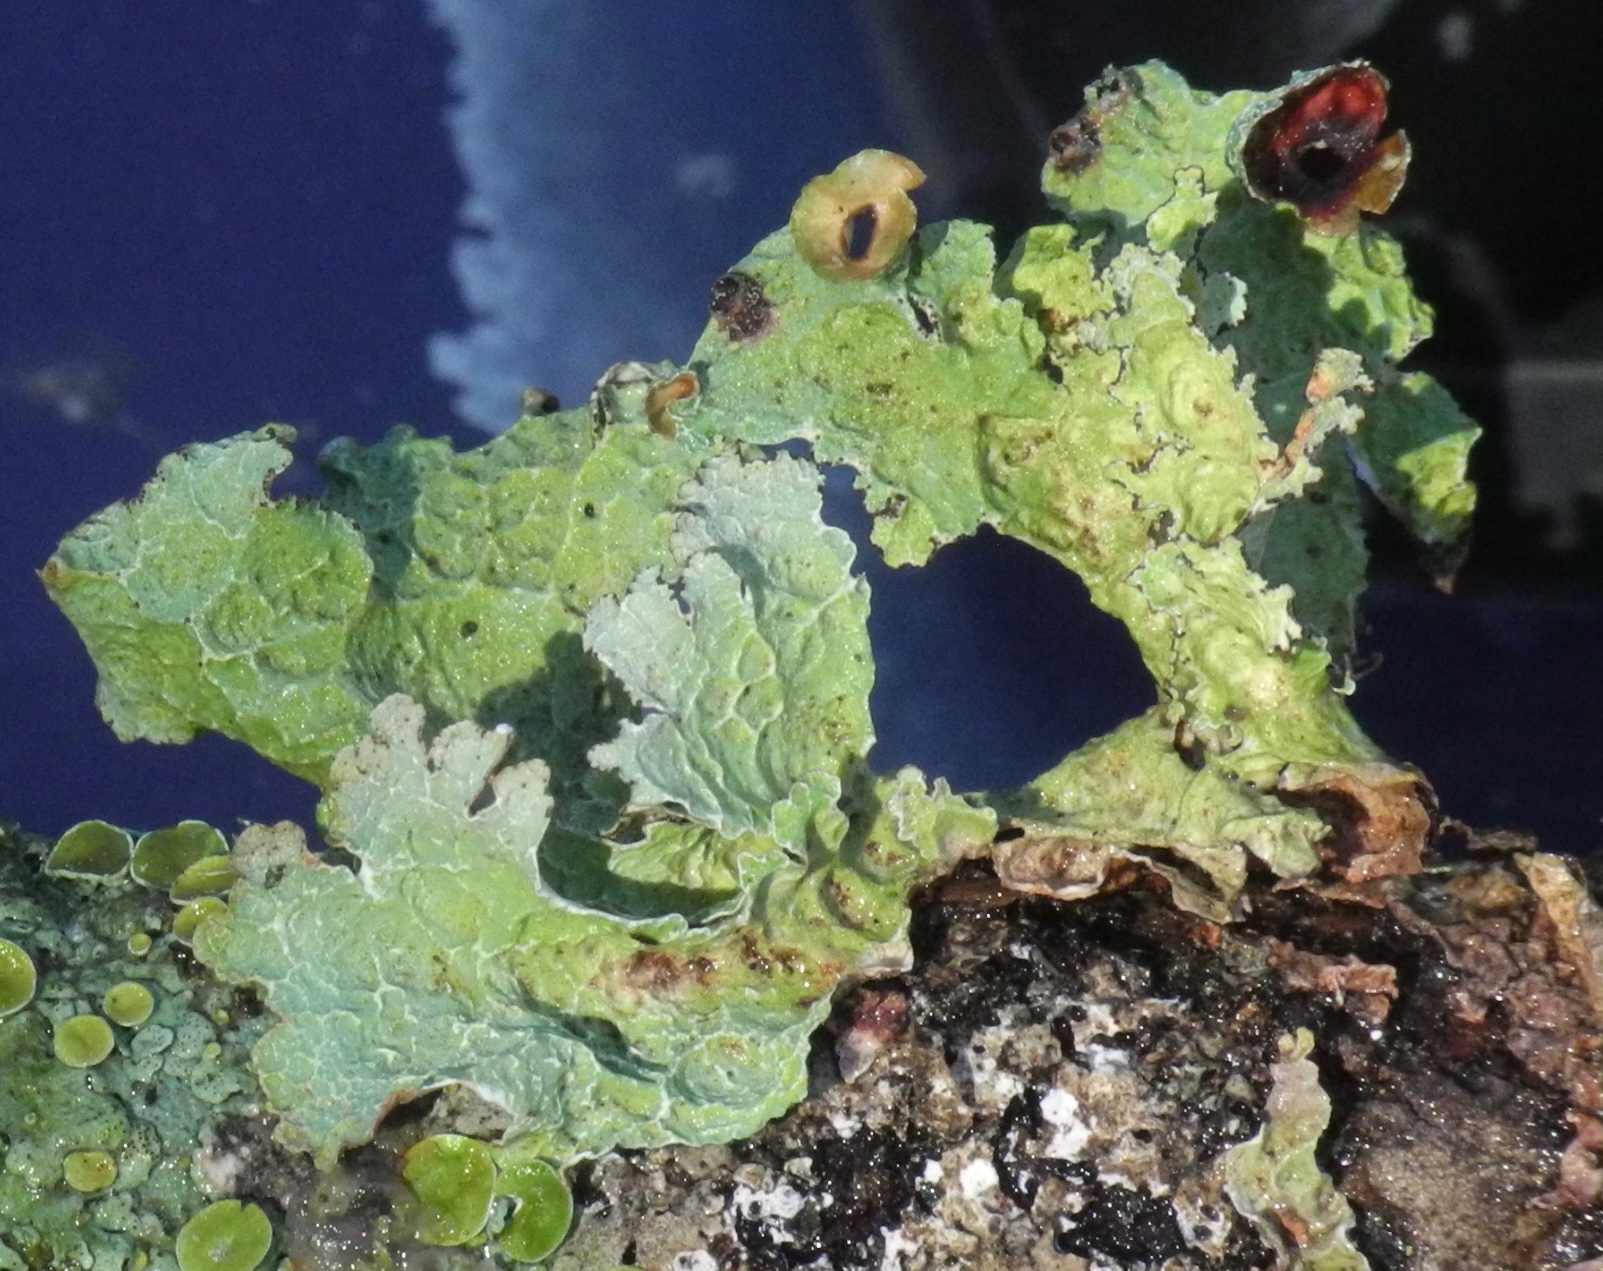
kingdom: Fungi
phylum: Ascomycota
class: Lecanoromycetes
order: Lecanorales
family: Parmeliaceae
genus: Platismatia
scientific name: Platismatia tuckermanii
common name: Crumpled rag lichen
